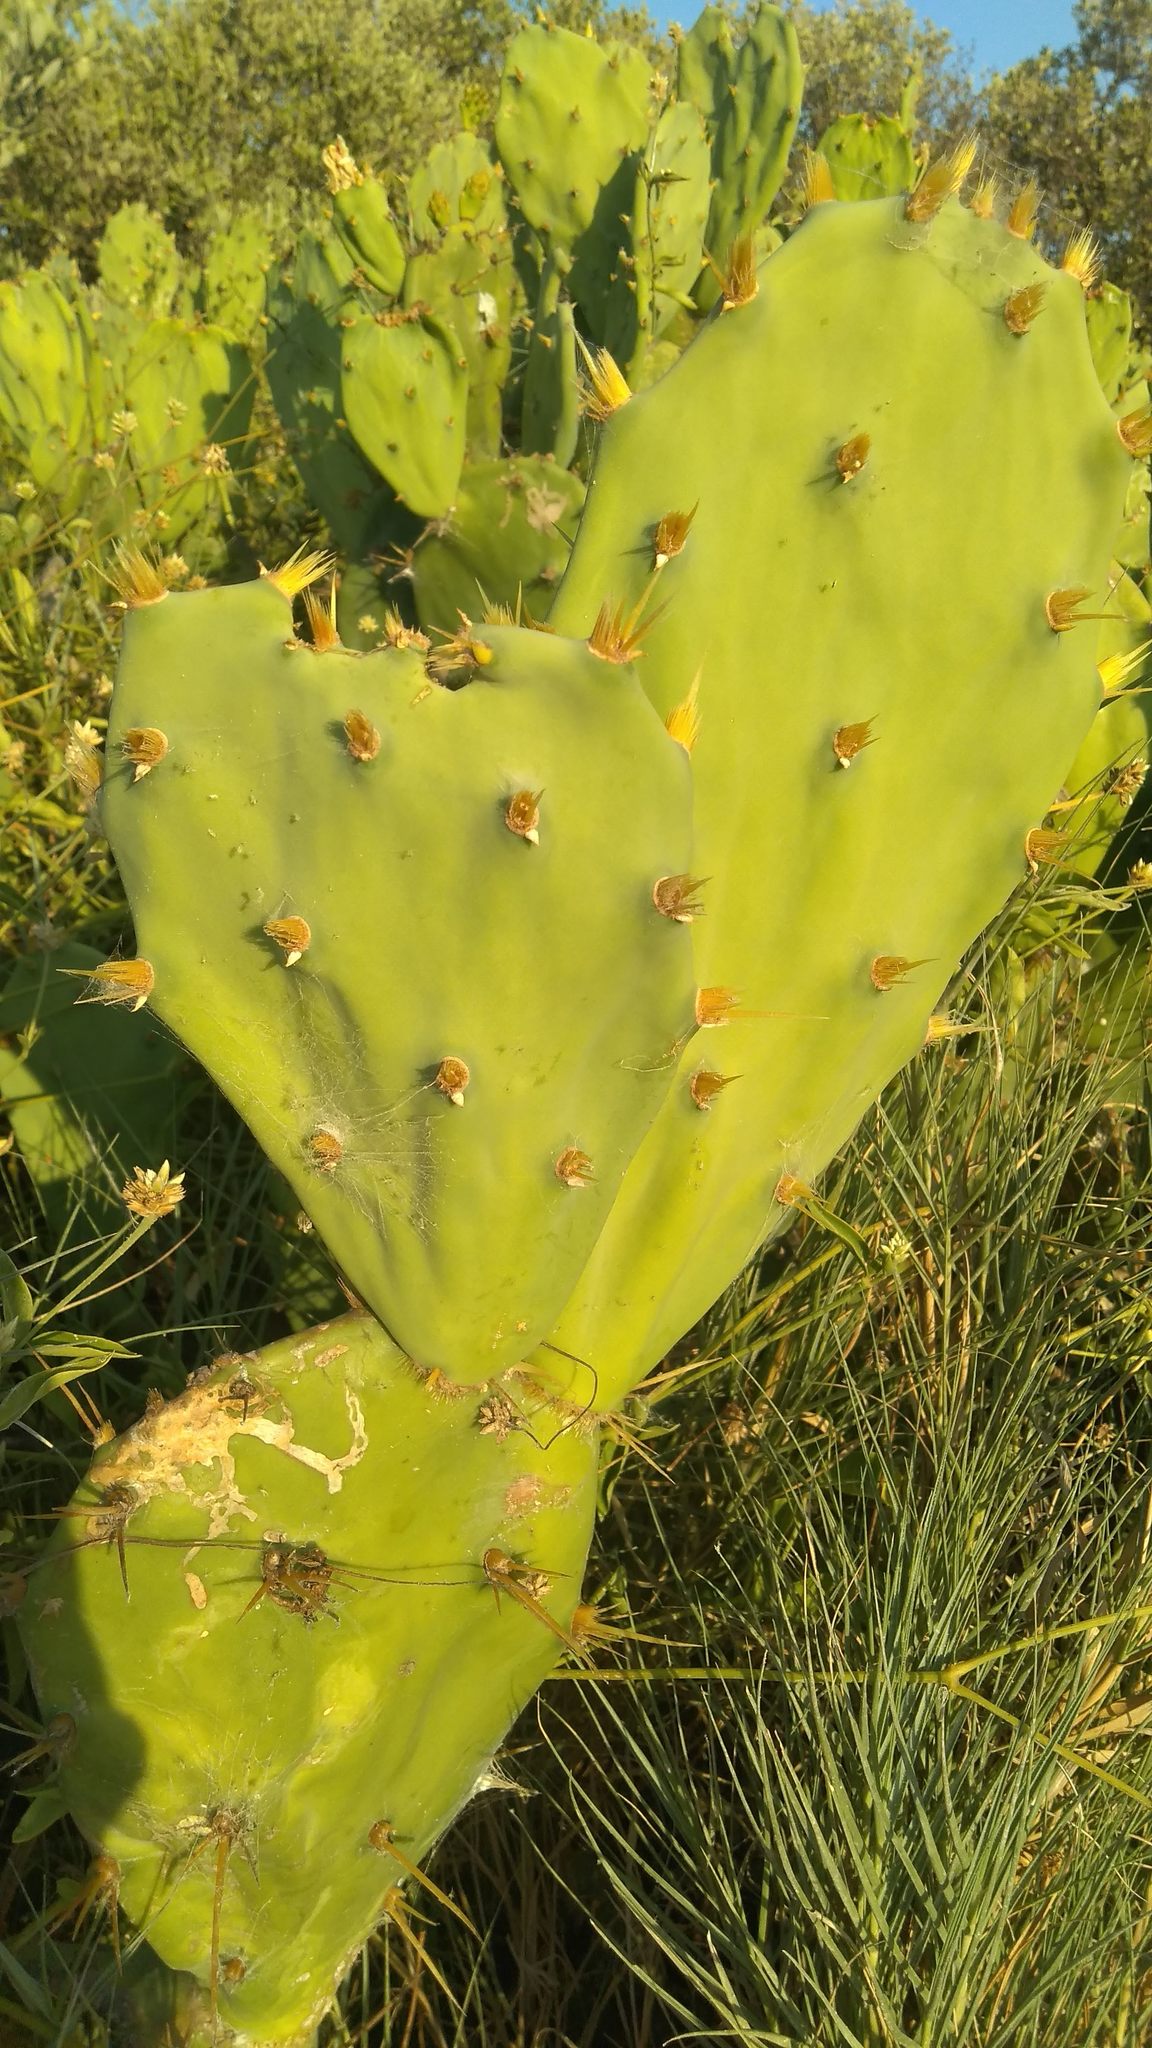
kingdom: Plantae
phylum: Tracheophyta
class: Magnoliopsida
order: Caryophyllales
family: Cactaceae
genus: Opuntia
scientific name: Opuntia dillenii
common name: Sour prickle
